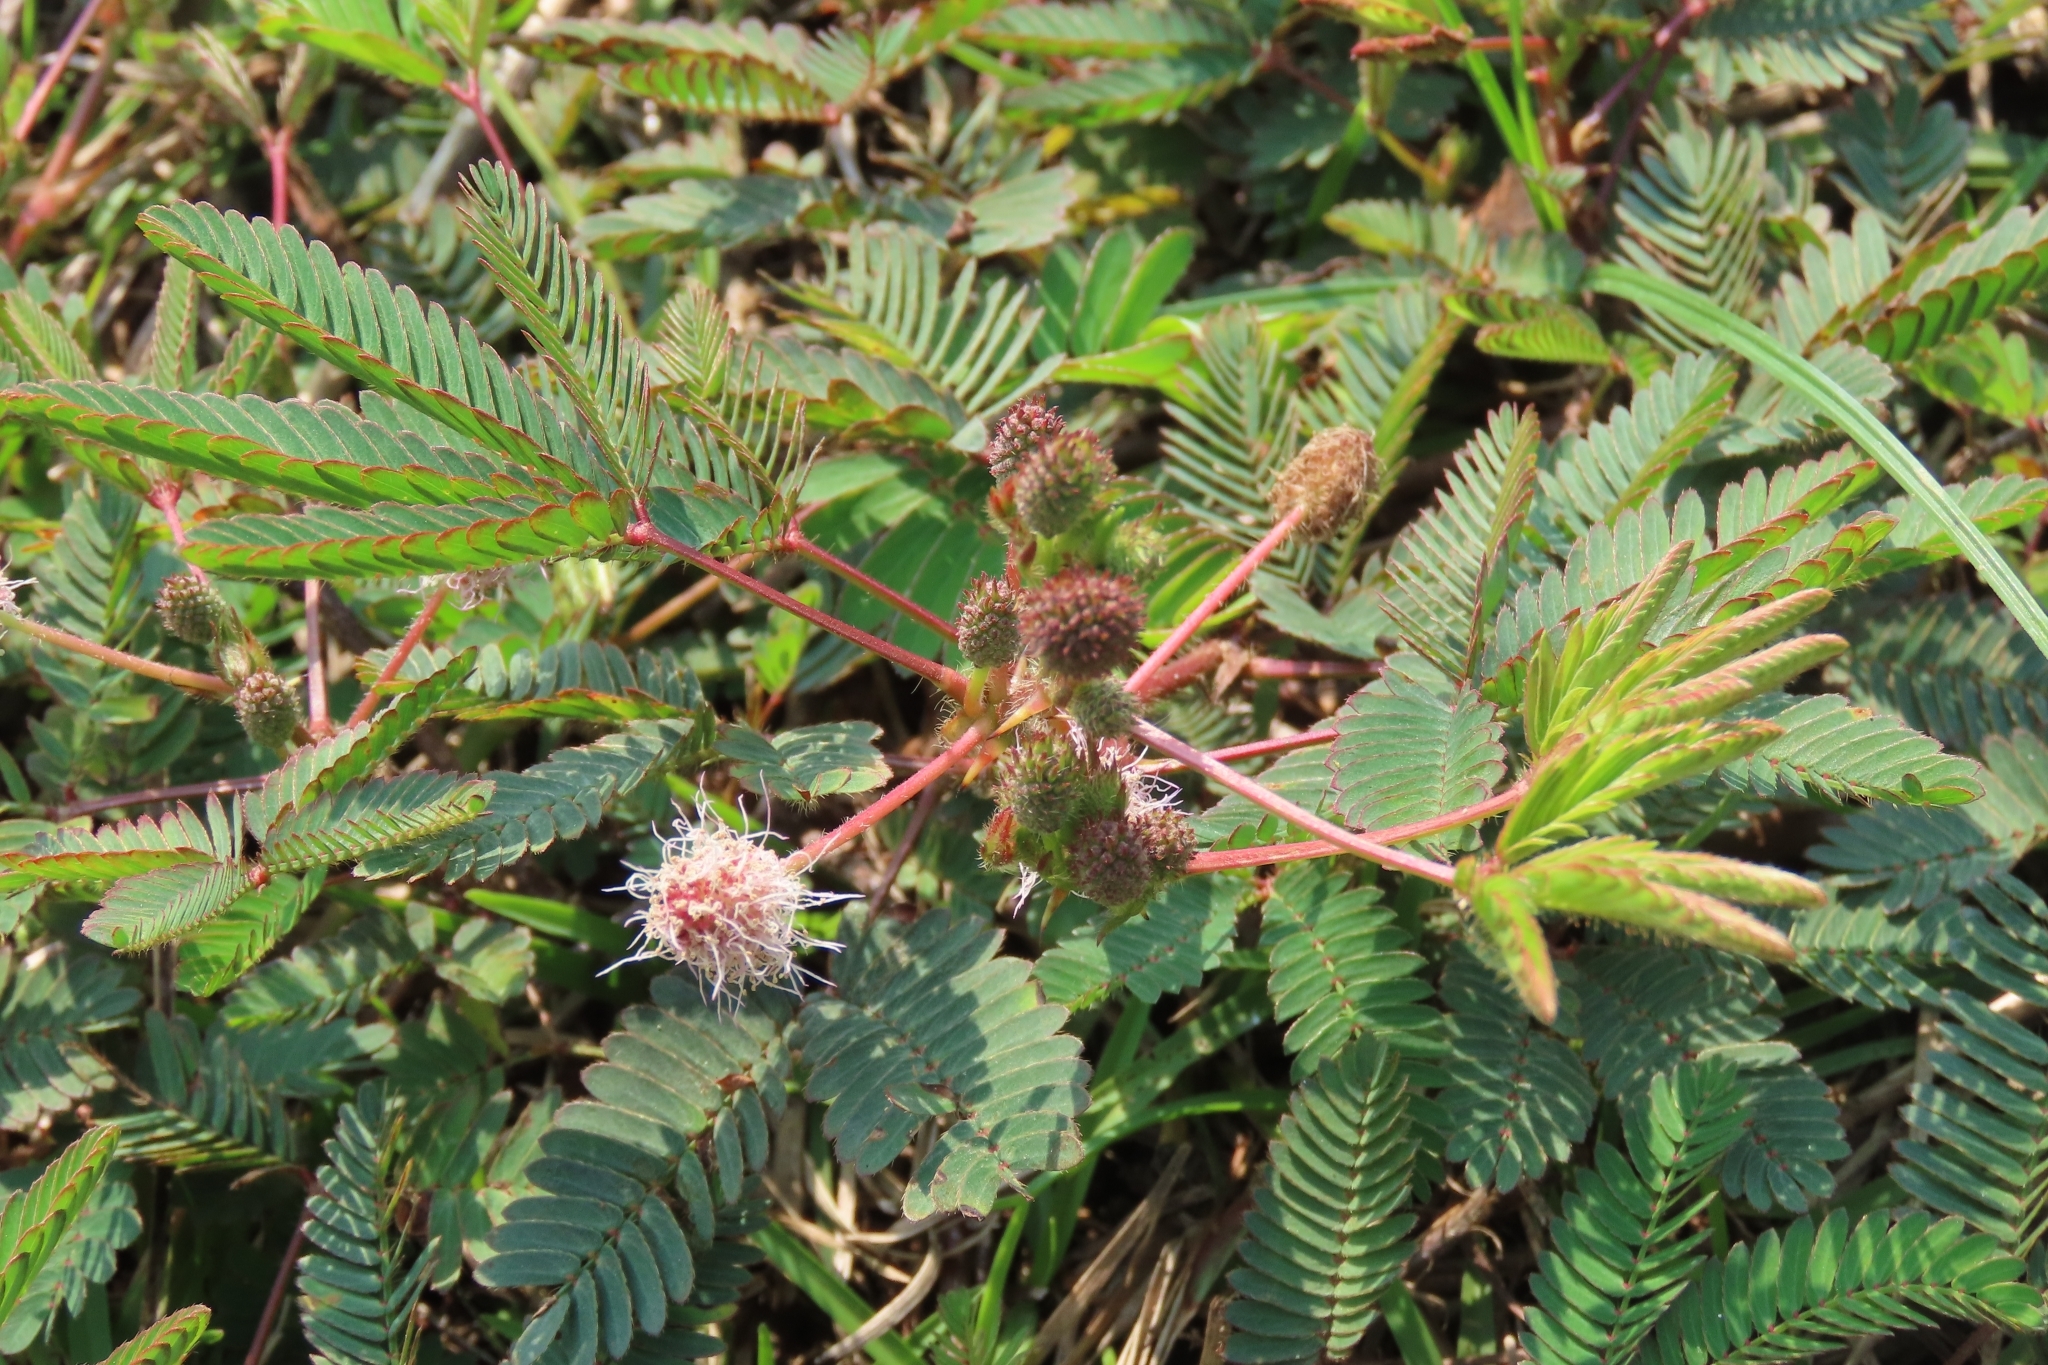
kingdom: Plantae
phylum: Tracheophyta
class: Magnoliopsida
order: Fabales
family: Fabaceae
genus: Mimosa
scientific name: Mimosa pudica
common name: Sensitive plant
